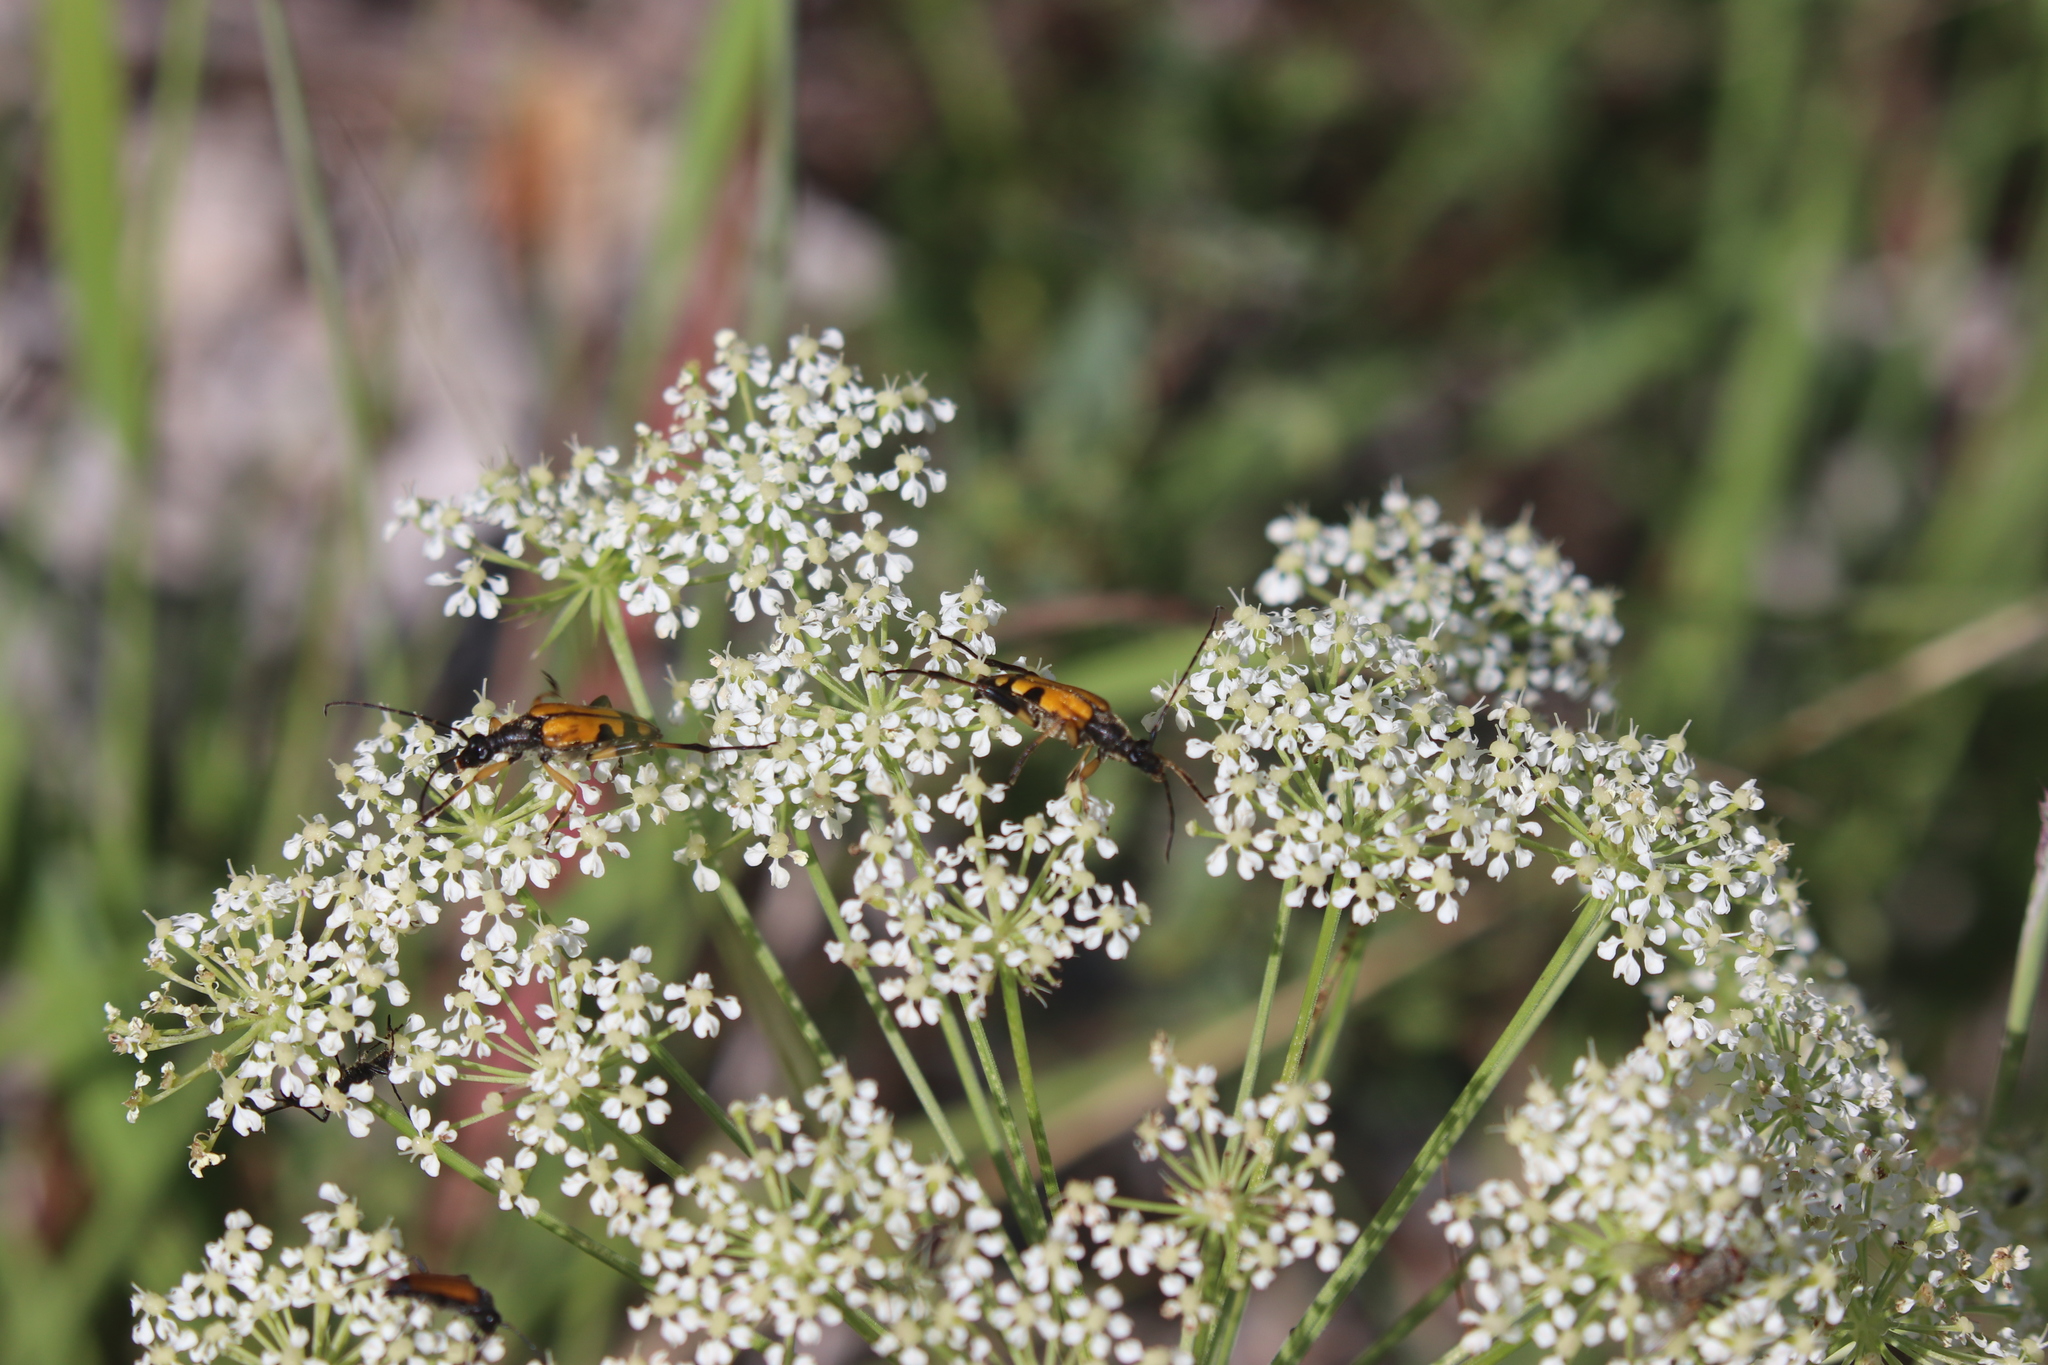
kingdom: Animalia
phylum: Arthropoda
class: Insecta
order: Coleoptera
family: Cerambycidae
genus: Rutpela
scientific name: Rutpela maculata
